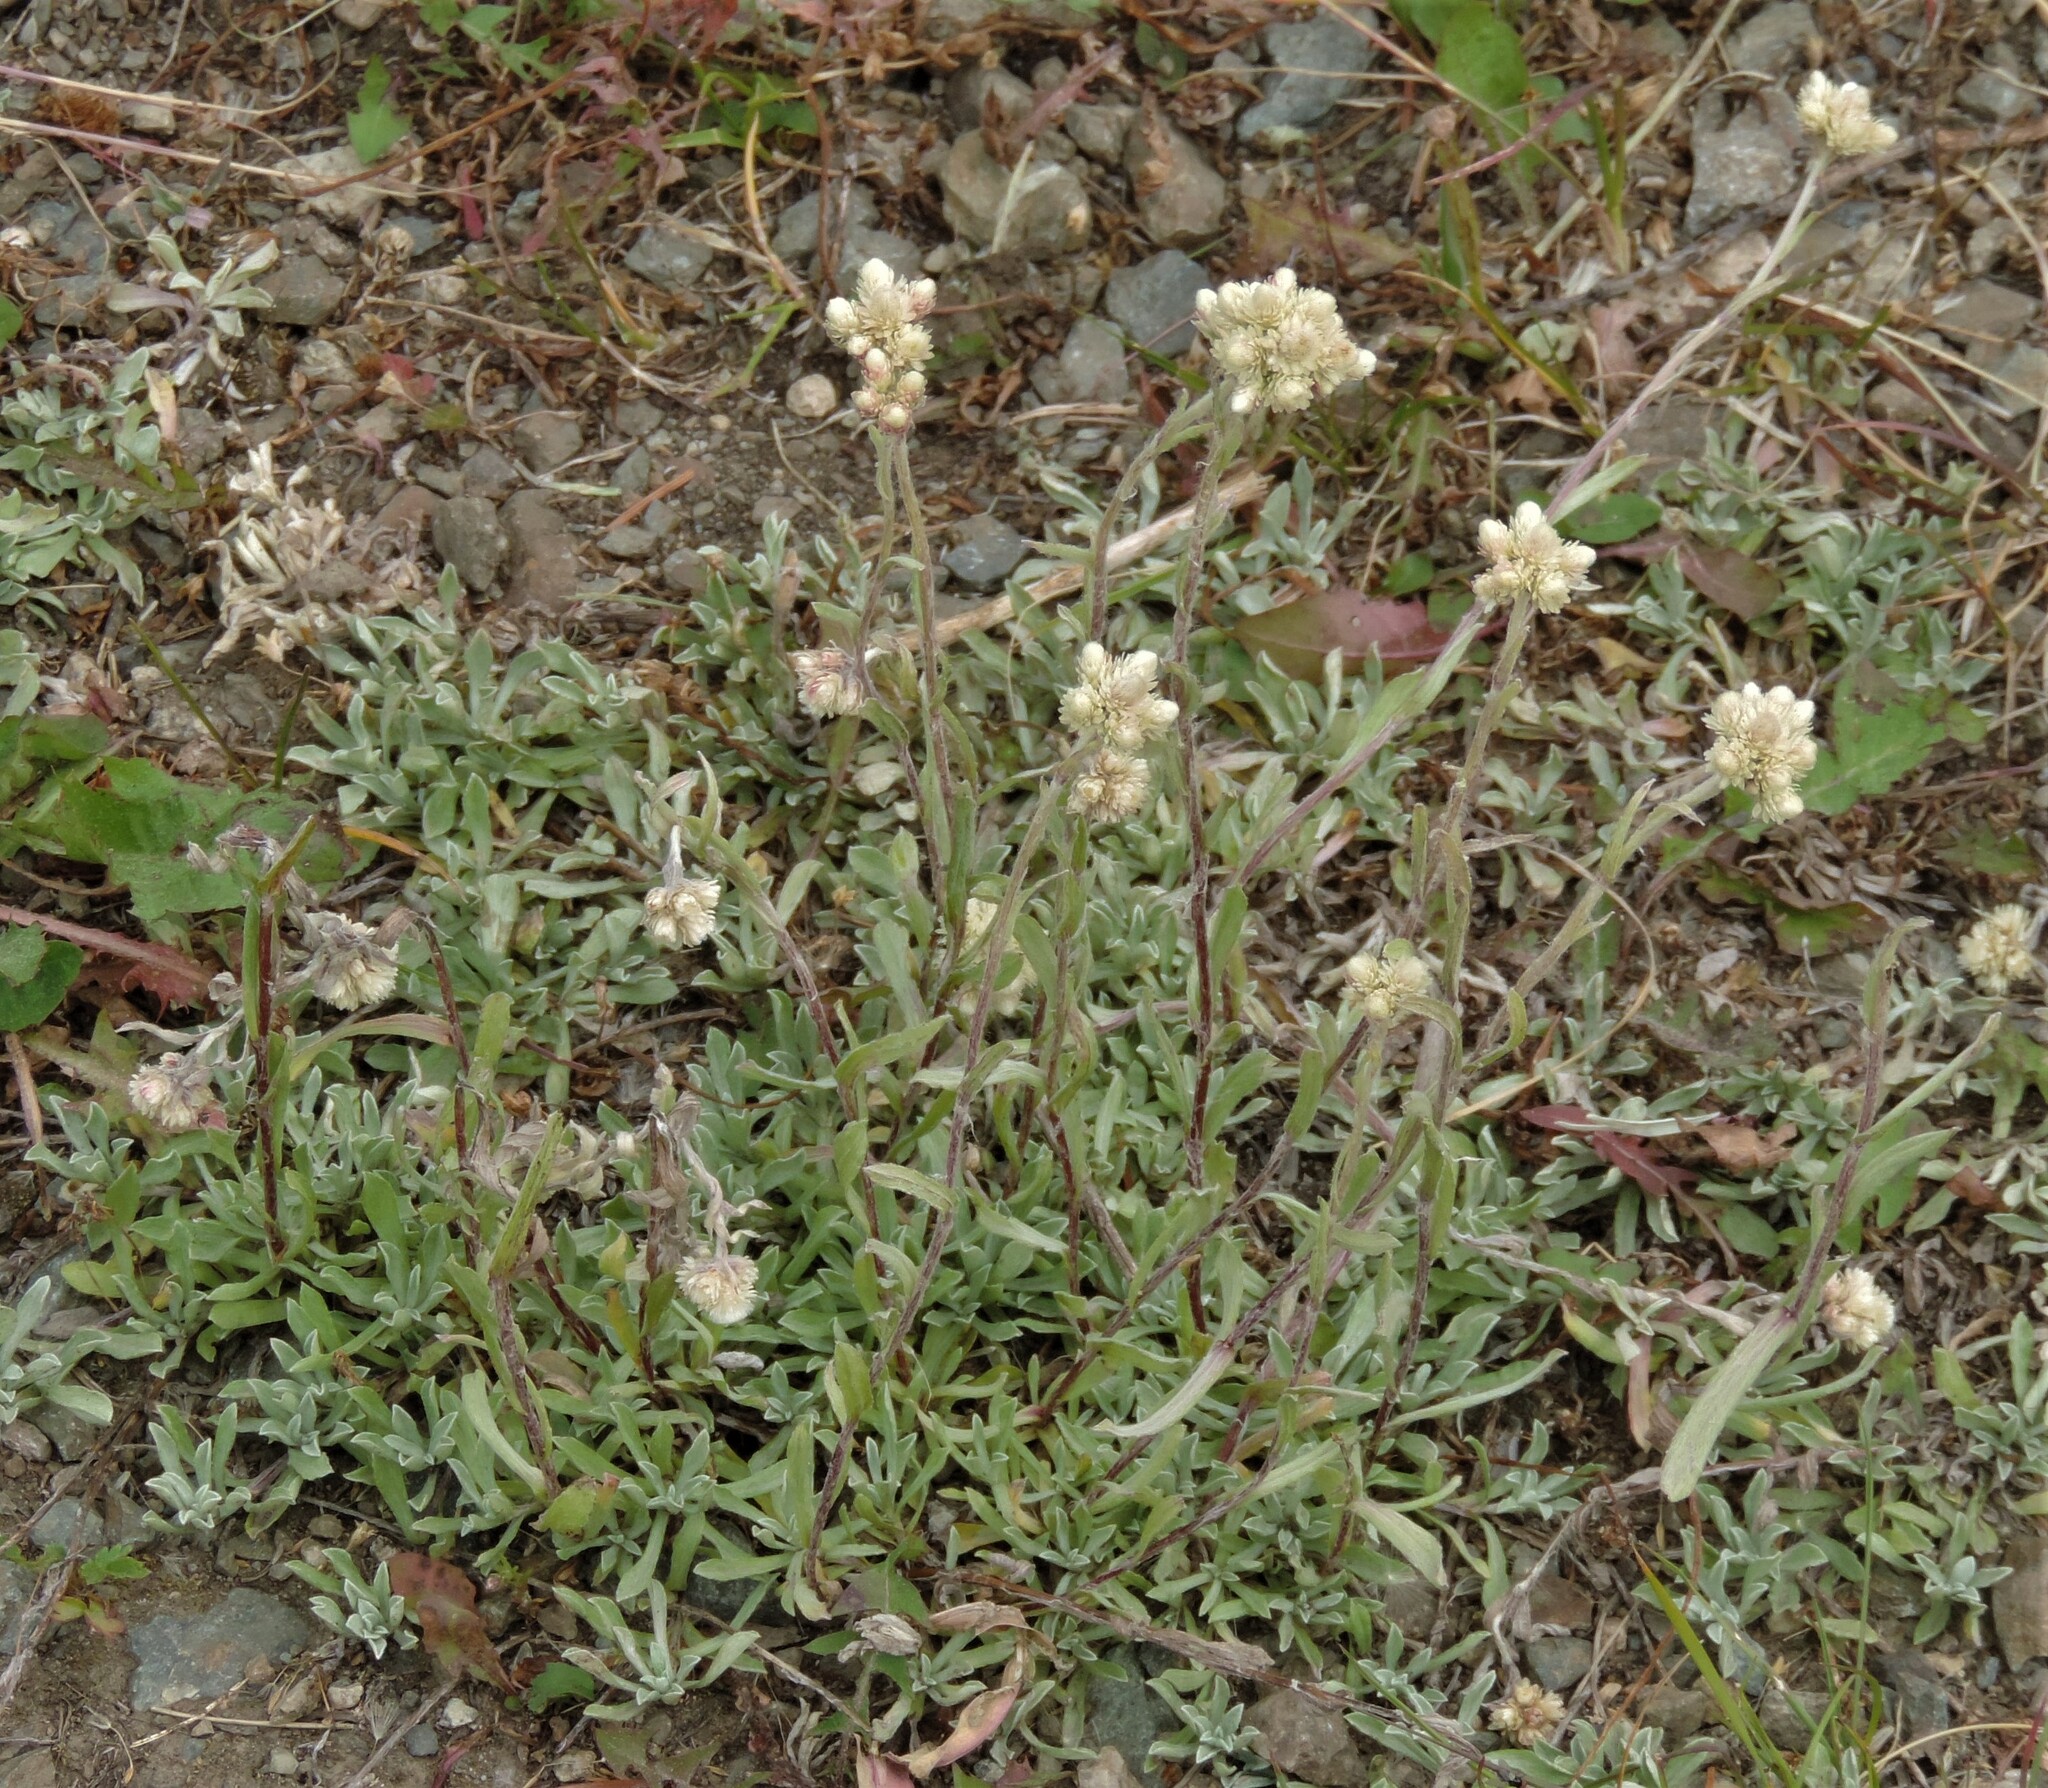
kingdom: Plantae
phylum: Tracheophyta
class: Magnoliopsida
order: Asterales
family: Asteraceae
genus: Antennaria
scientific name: Antennaria rosea
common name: Rosy pussytoes
